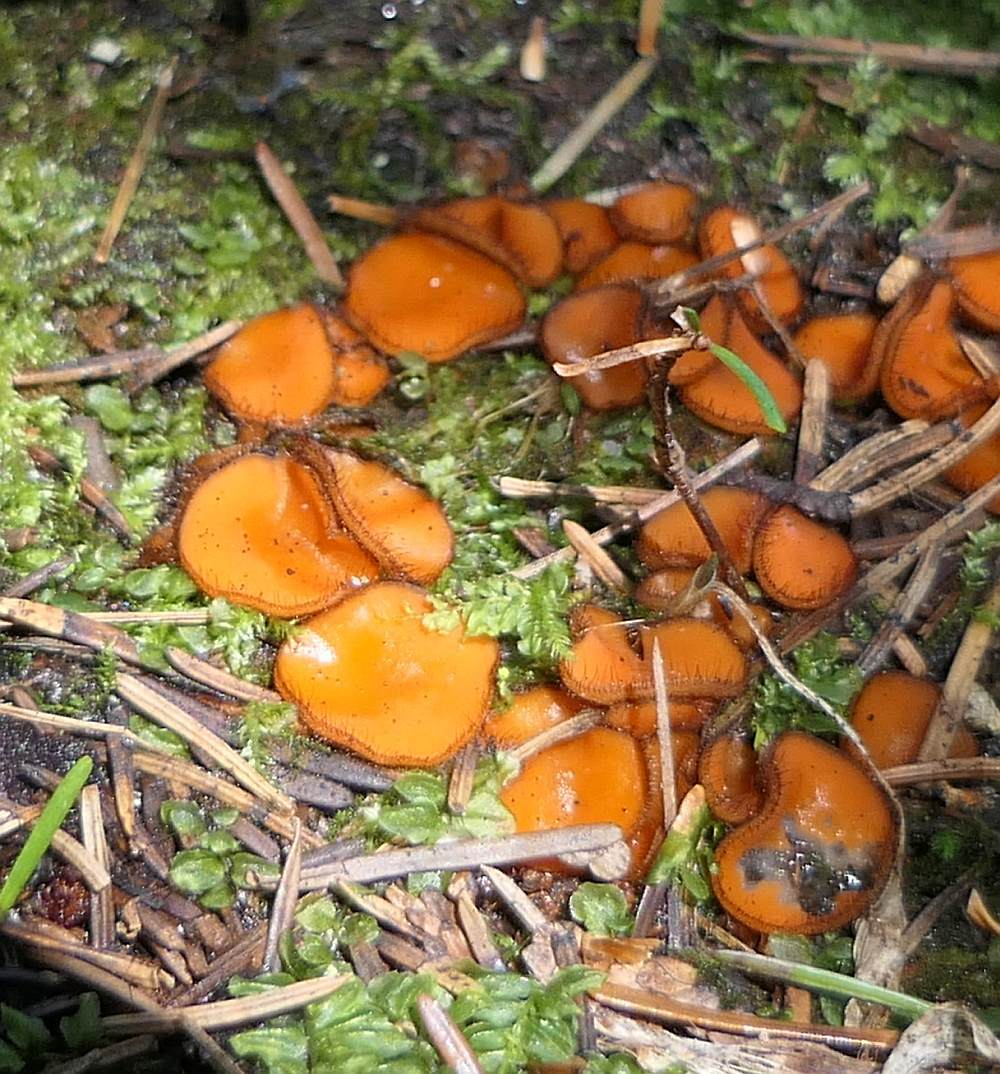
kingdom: Fungi
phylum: Ascomycota
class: Pezizomycetes
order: Pezizales
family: Pyronemataceae
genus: Scutellinia
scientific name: Scutellinia
